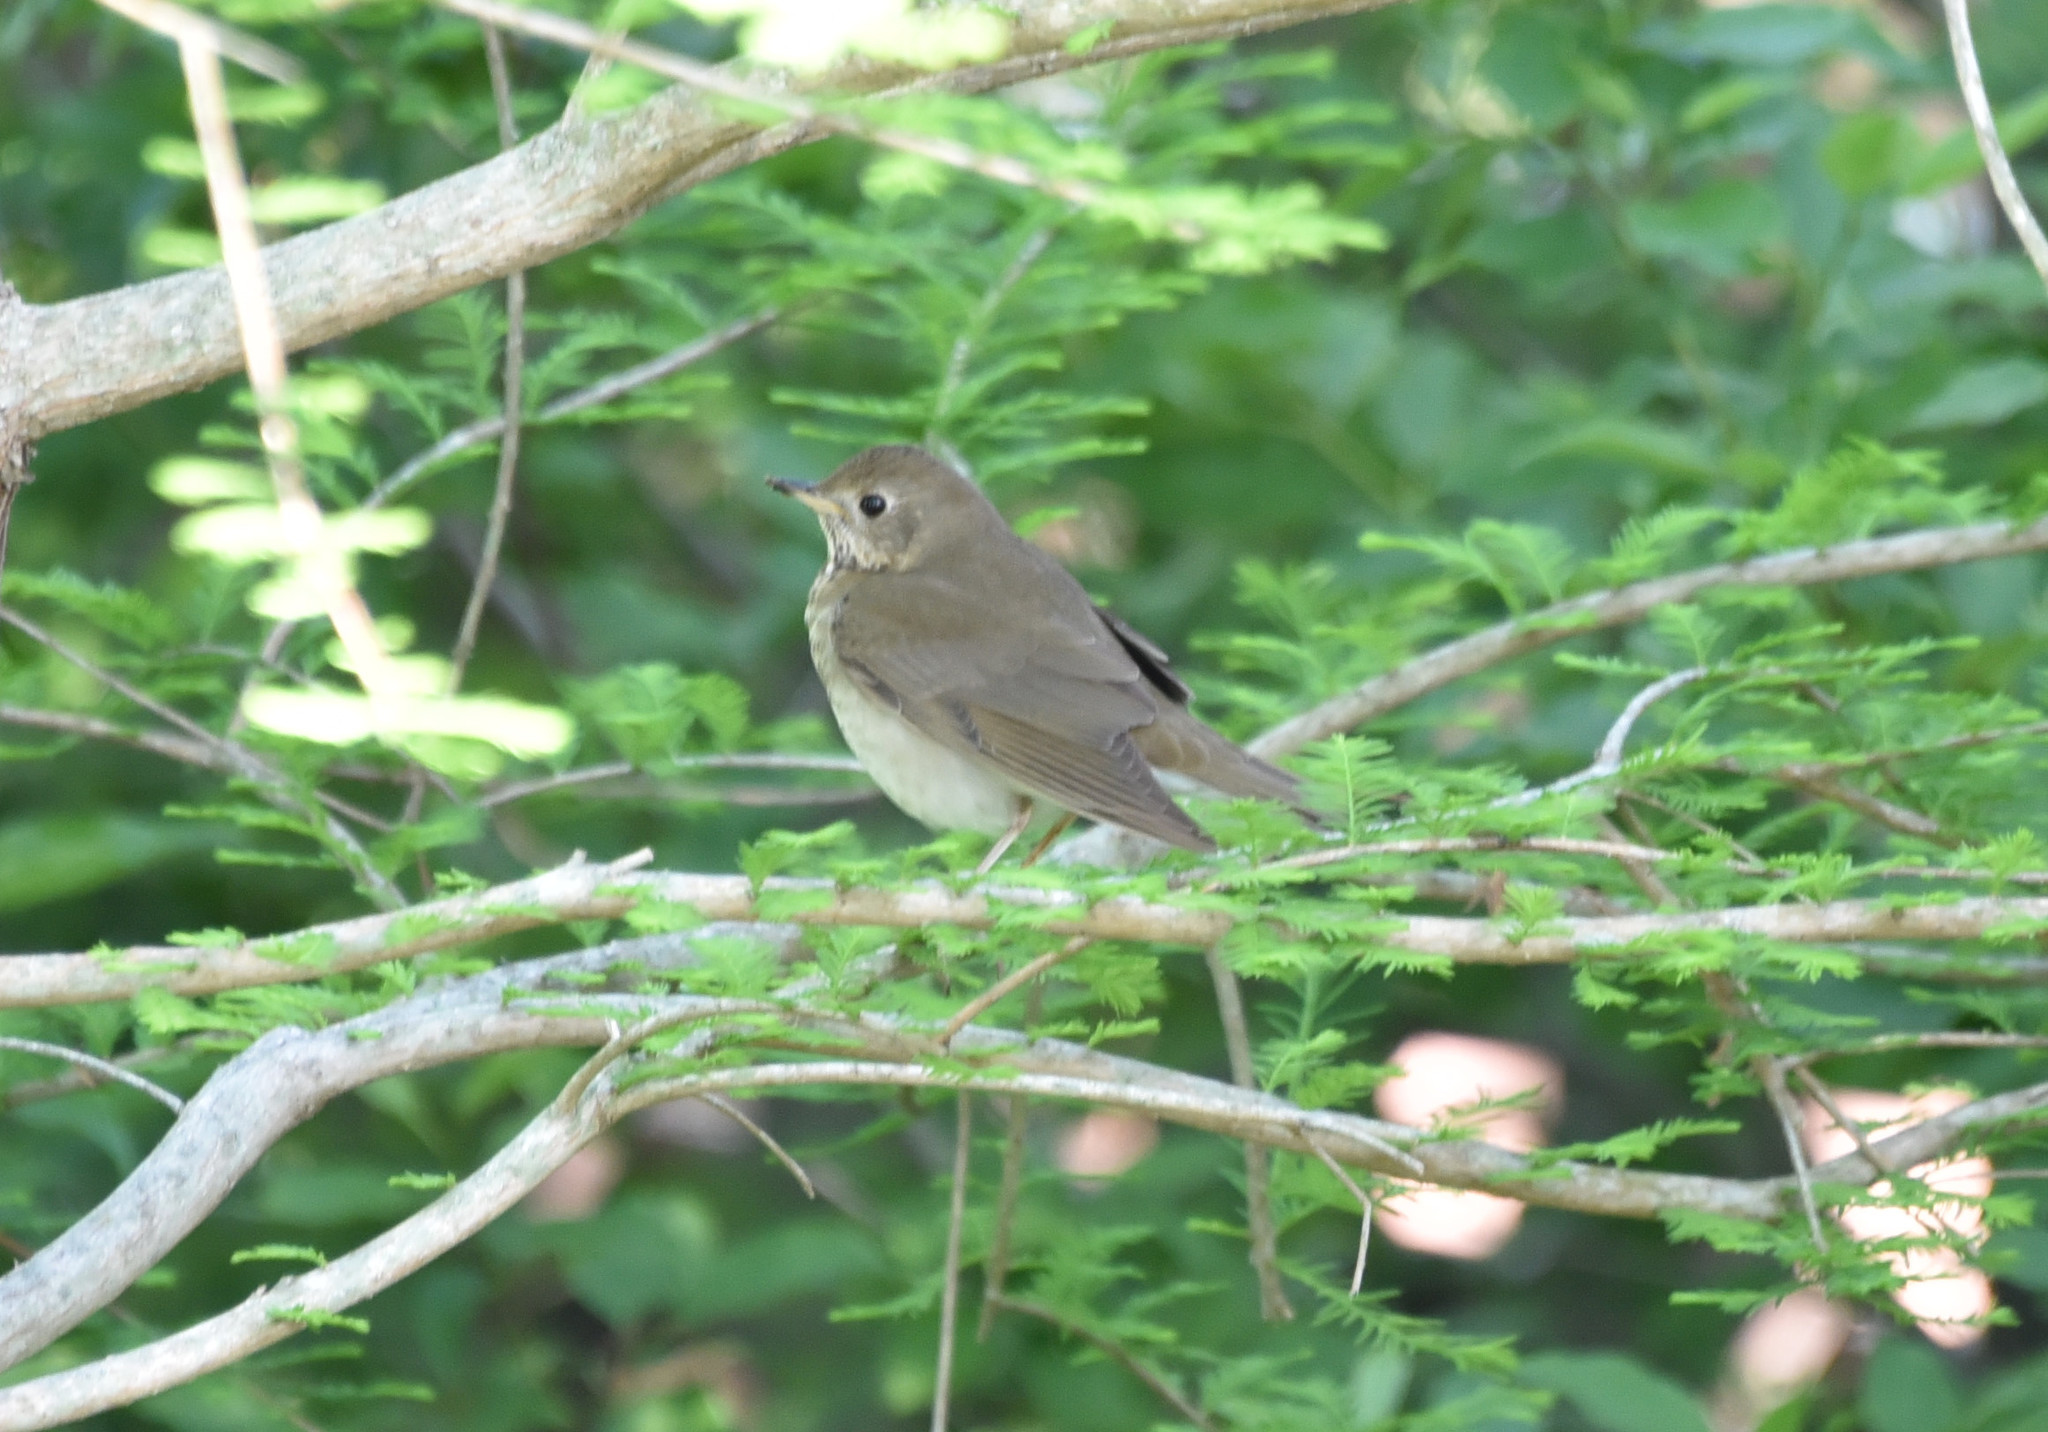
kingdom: Animalia
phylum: Chordata
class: Aves
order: Passeriformes
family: Turdidae
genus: Catharus
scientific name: Catharus ustulatus
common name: Swainson's thrush
